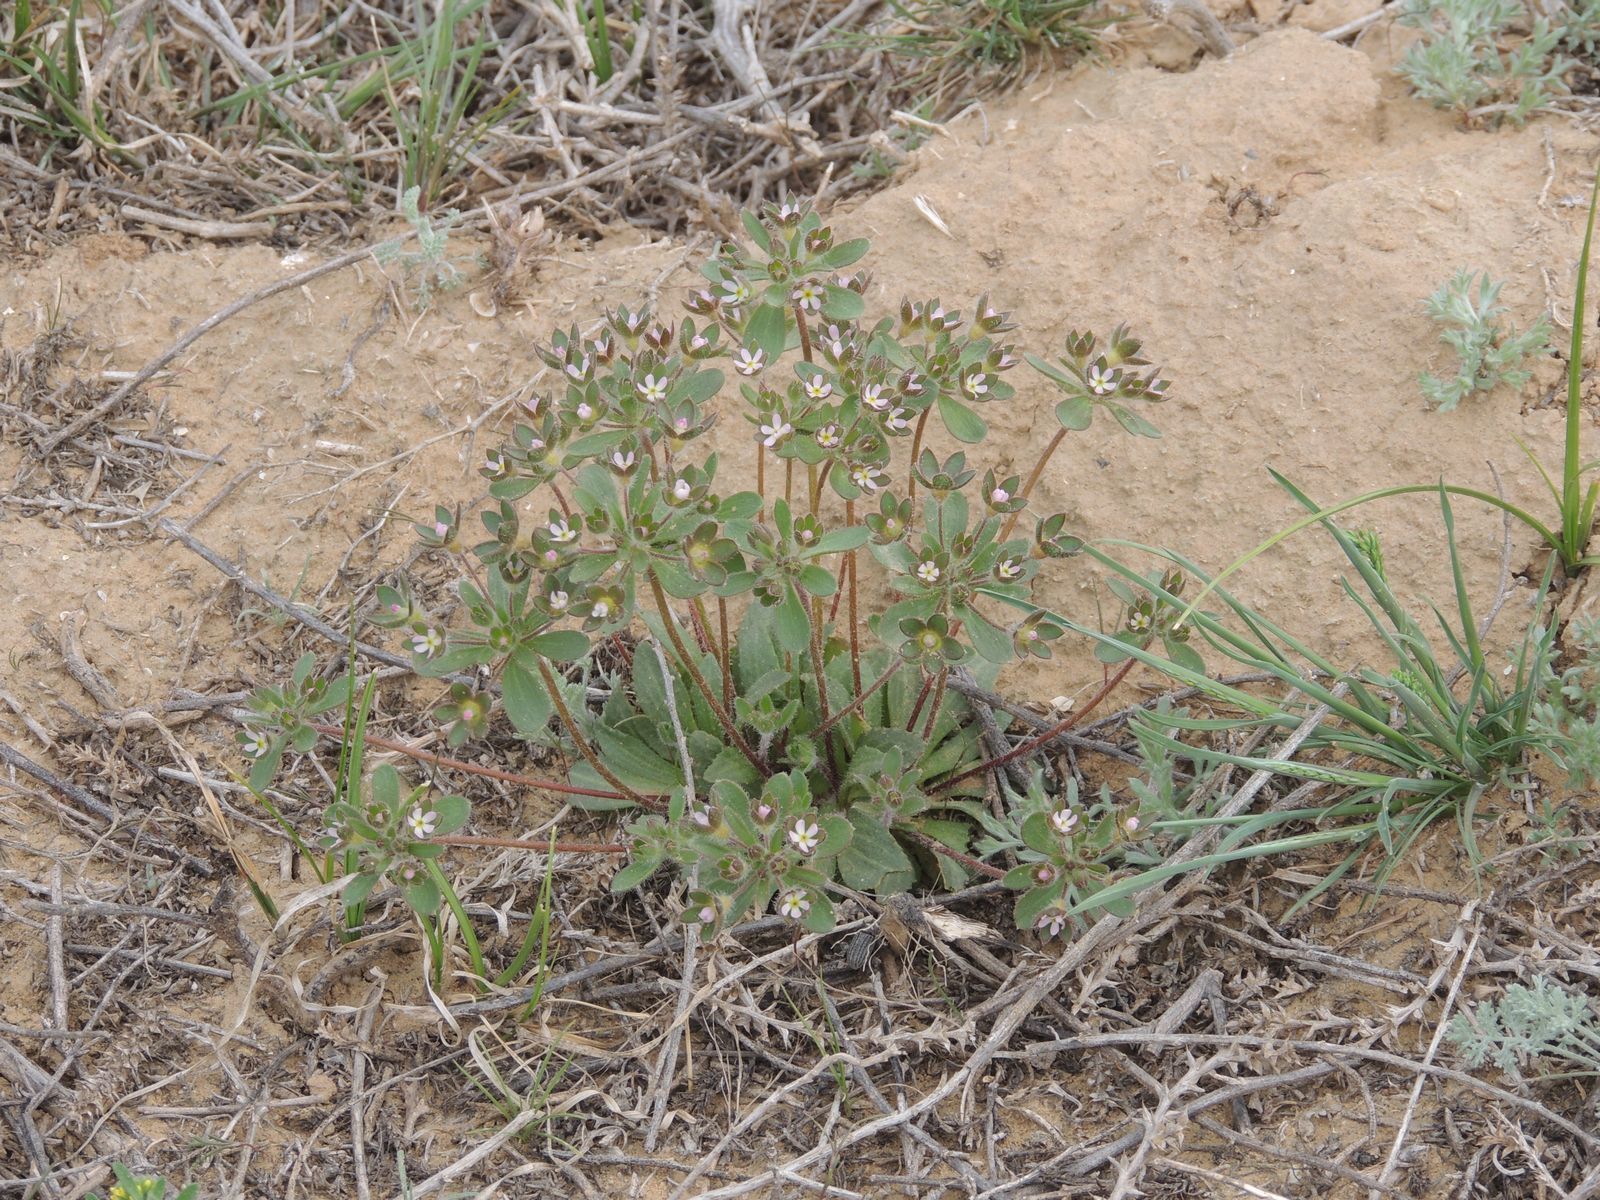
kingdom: Plantae
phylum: Tracheophyta
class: Magnoliopsida
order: Ericales
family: Primulaceae
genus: Androsace
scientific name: Androsace maxima
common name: Annual androsace
